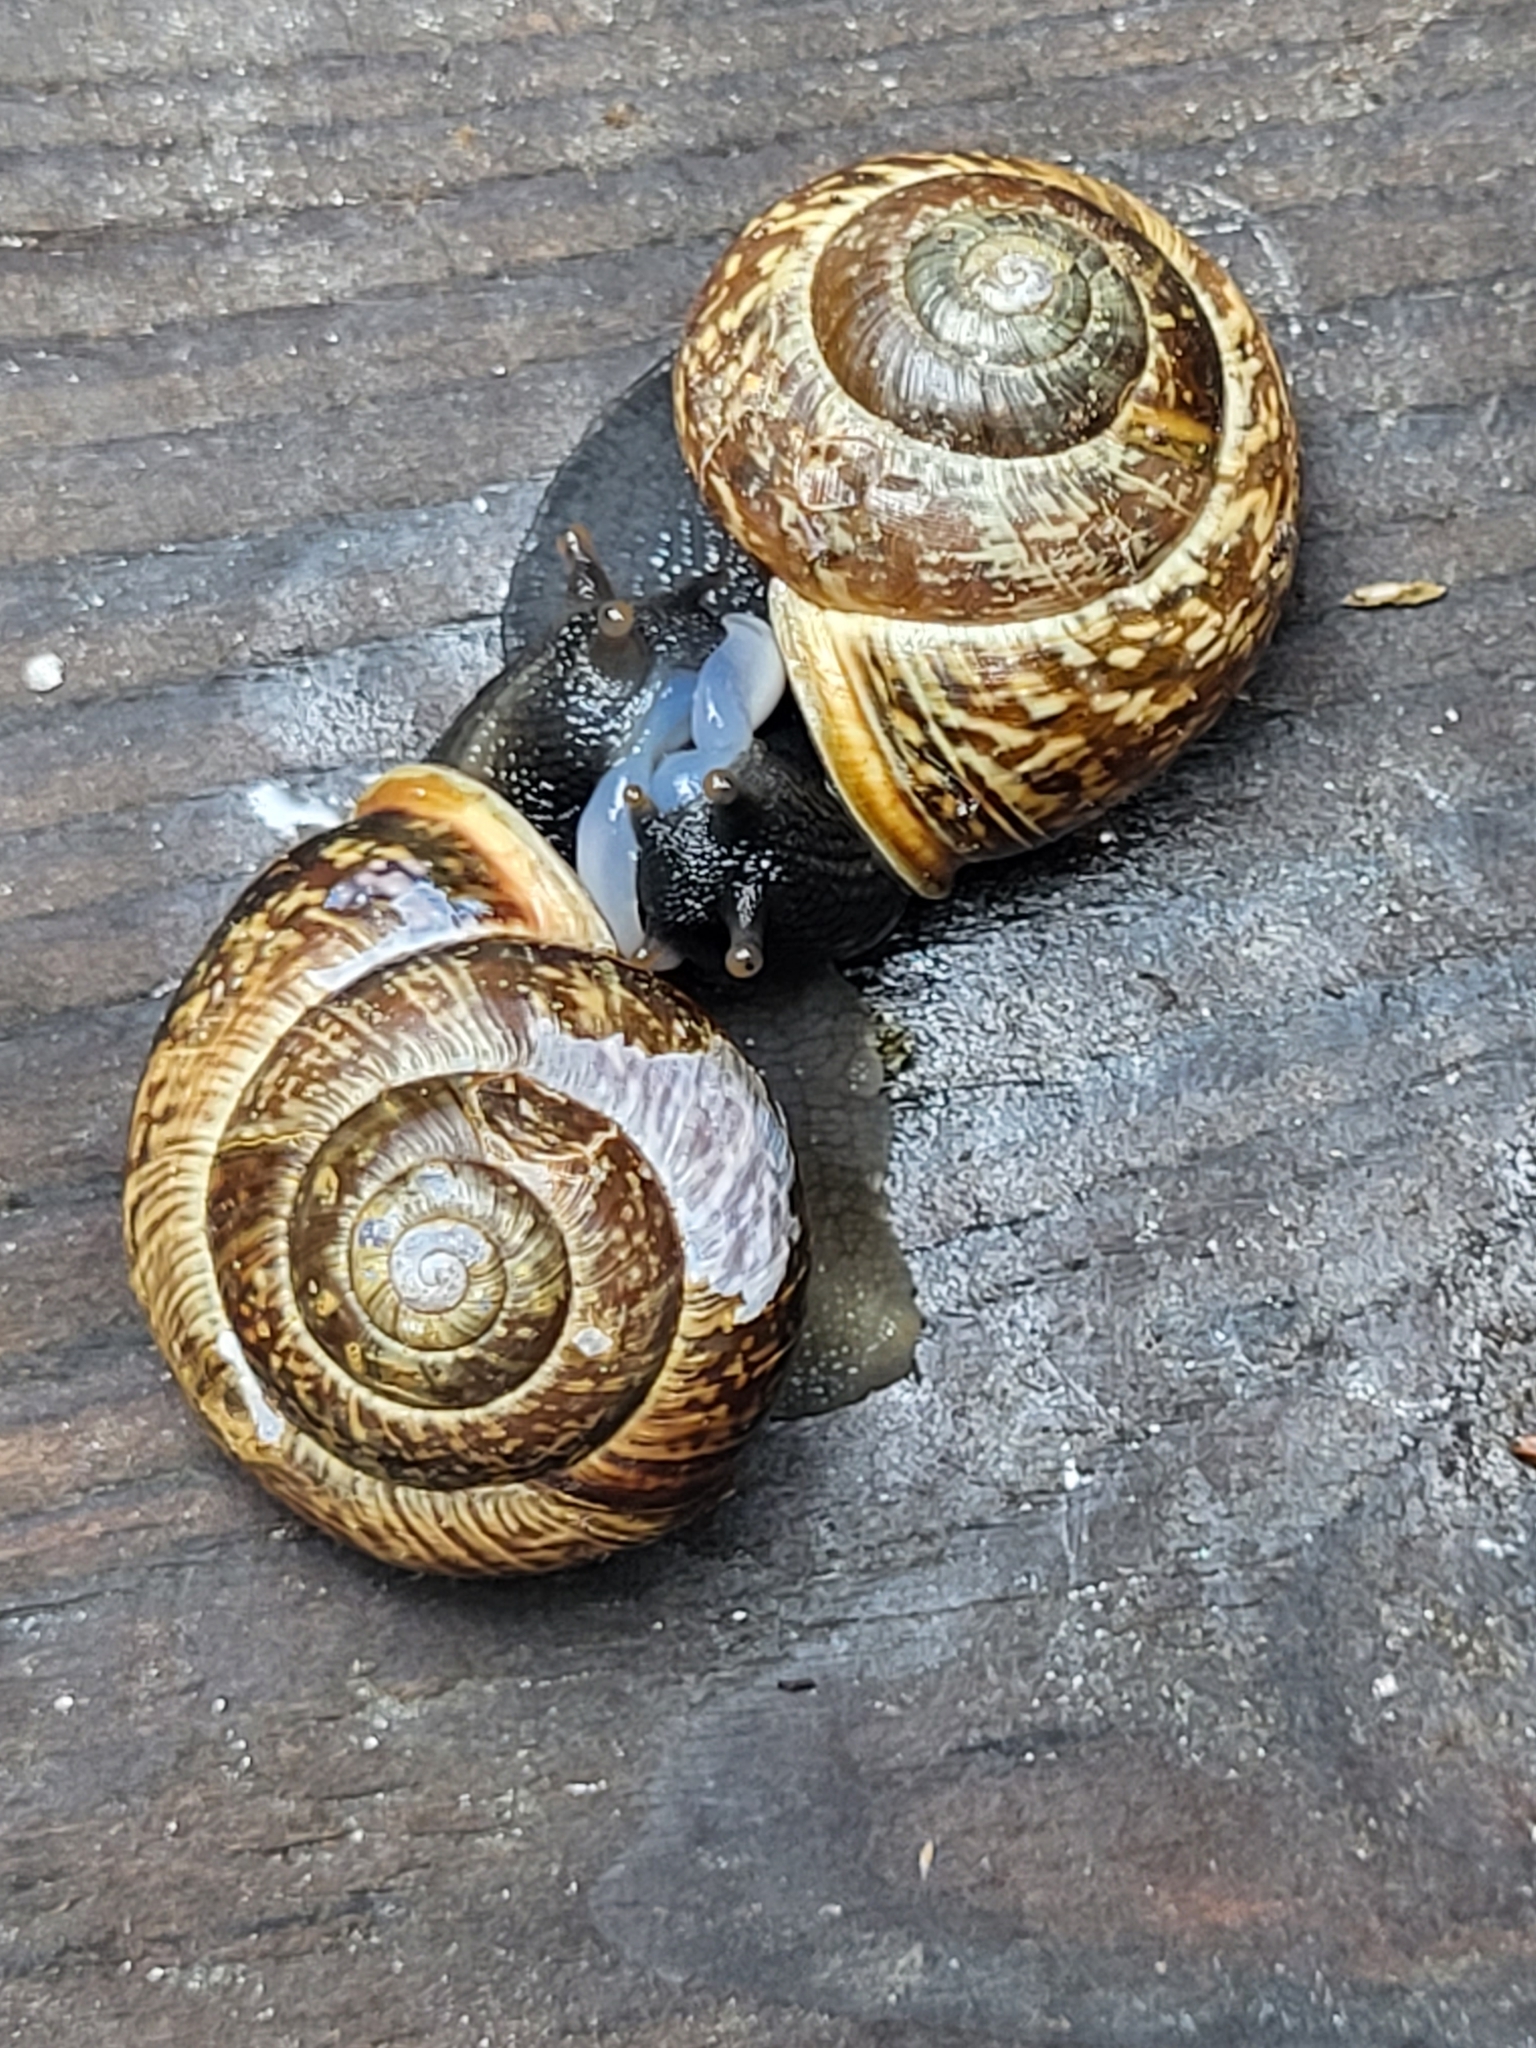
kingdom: Animalia
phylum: Mollusca
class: Gastropoda
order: Stylommatophora
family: Helicidae
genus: Arianta
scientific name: Arianta arbustorum
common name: Copse snail
